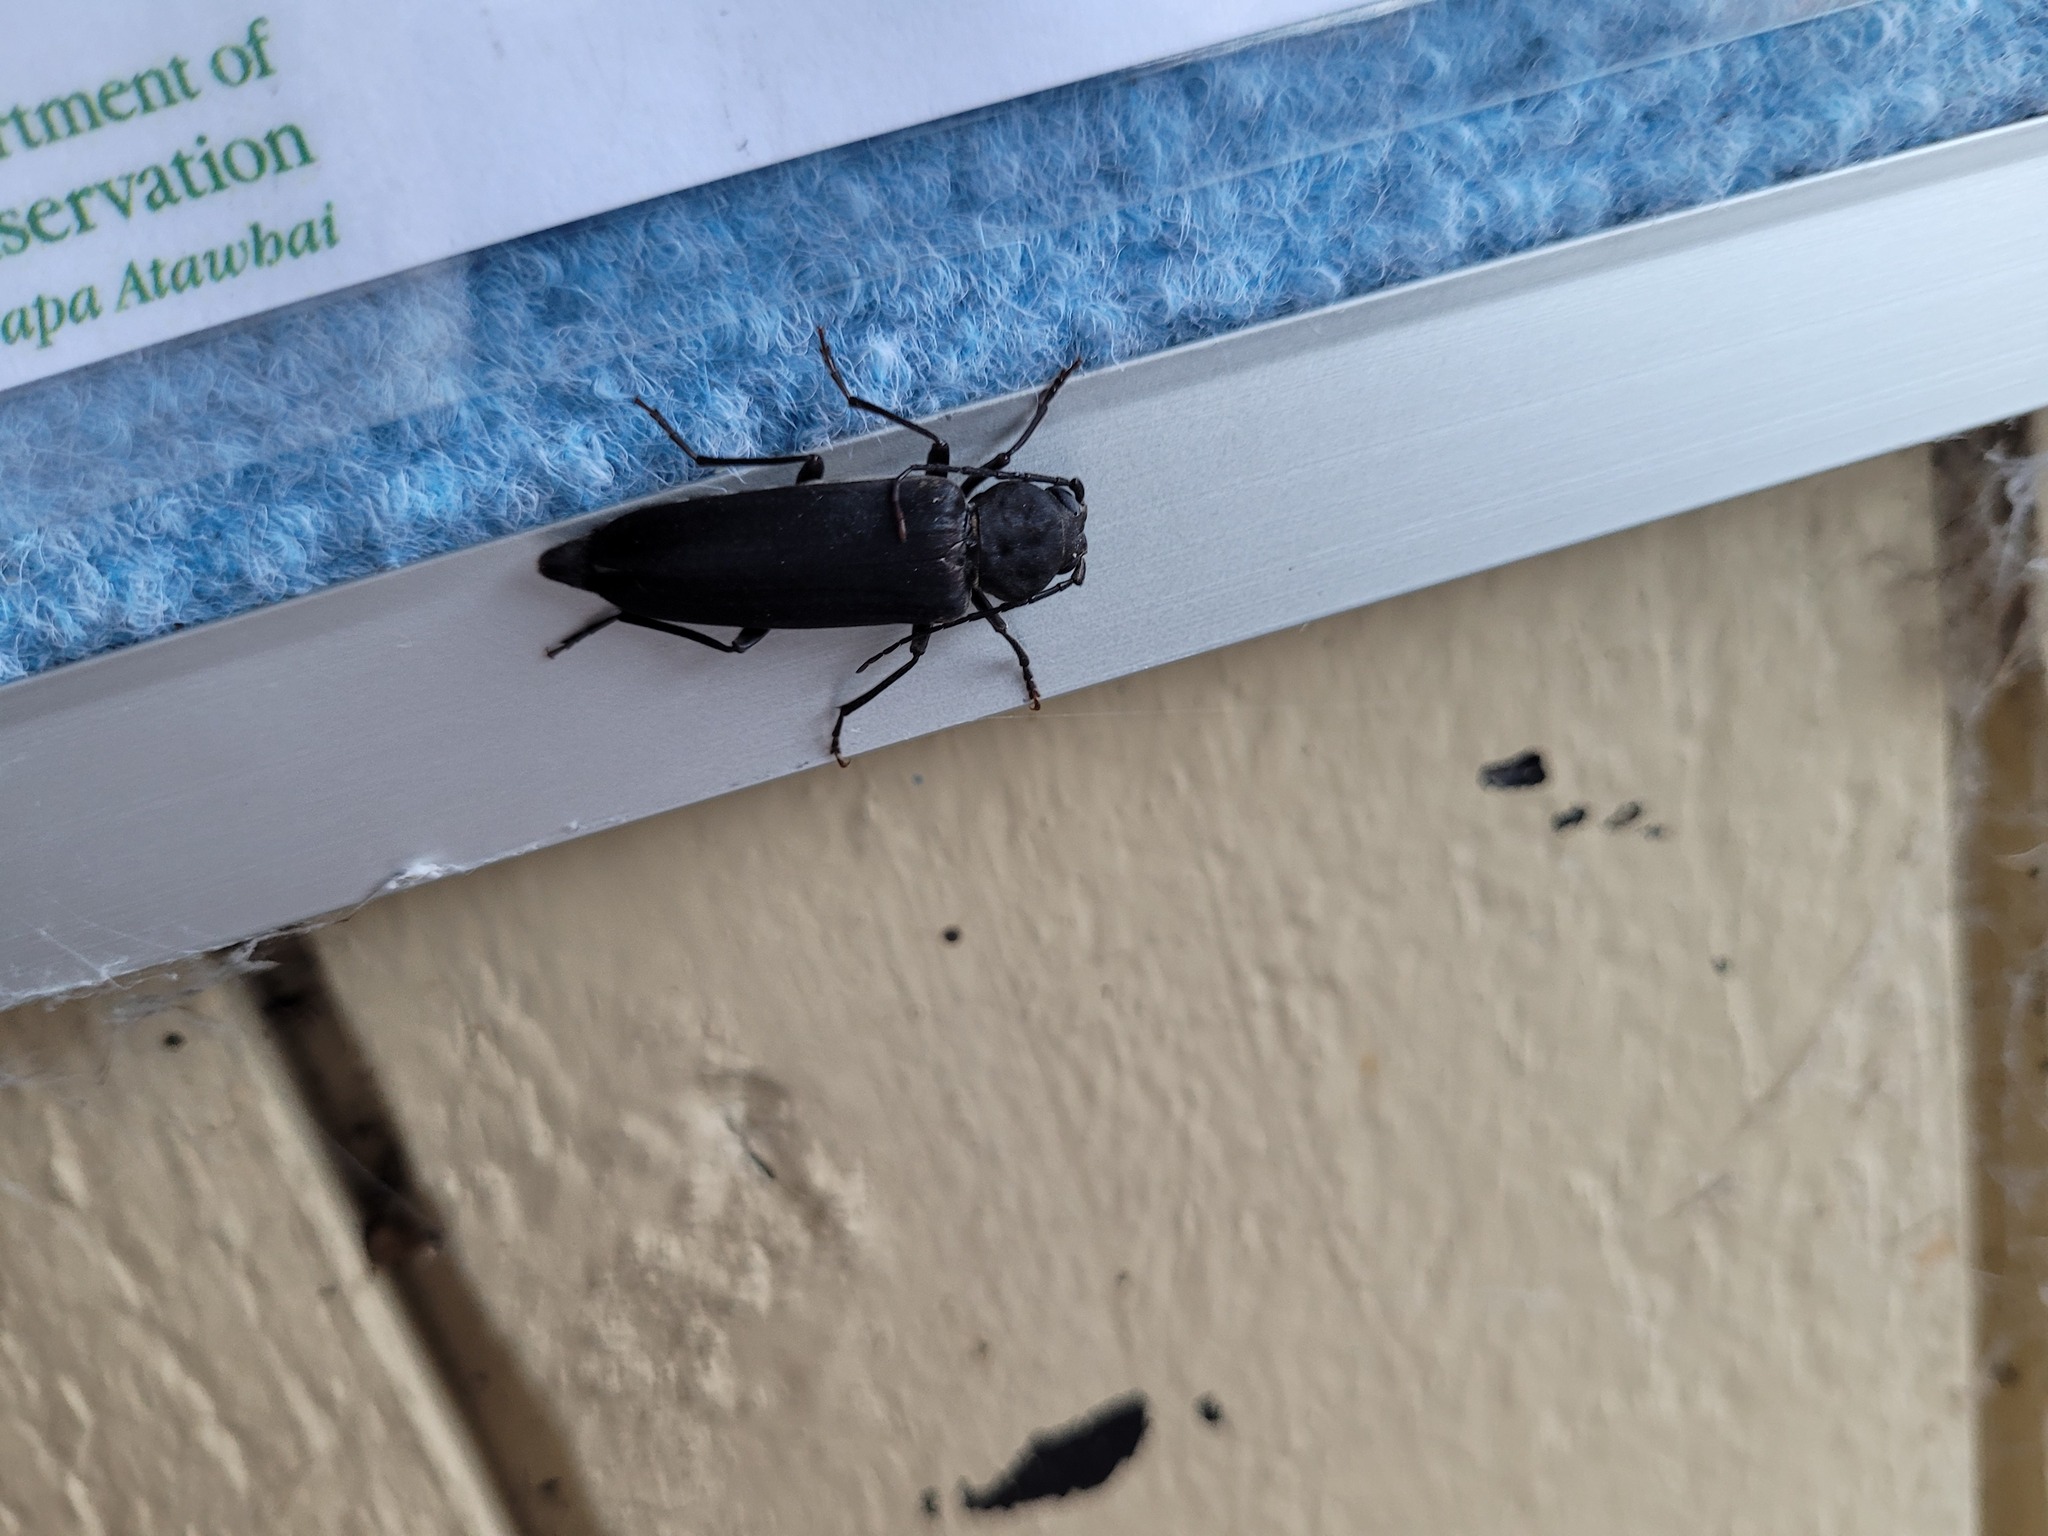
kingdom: Animalia
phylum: Arthropoda
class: Insecta
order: Coleoptera
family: Cerambycidae
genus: Arhopalus
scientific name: Arhopalus ferus
